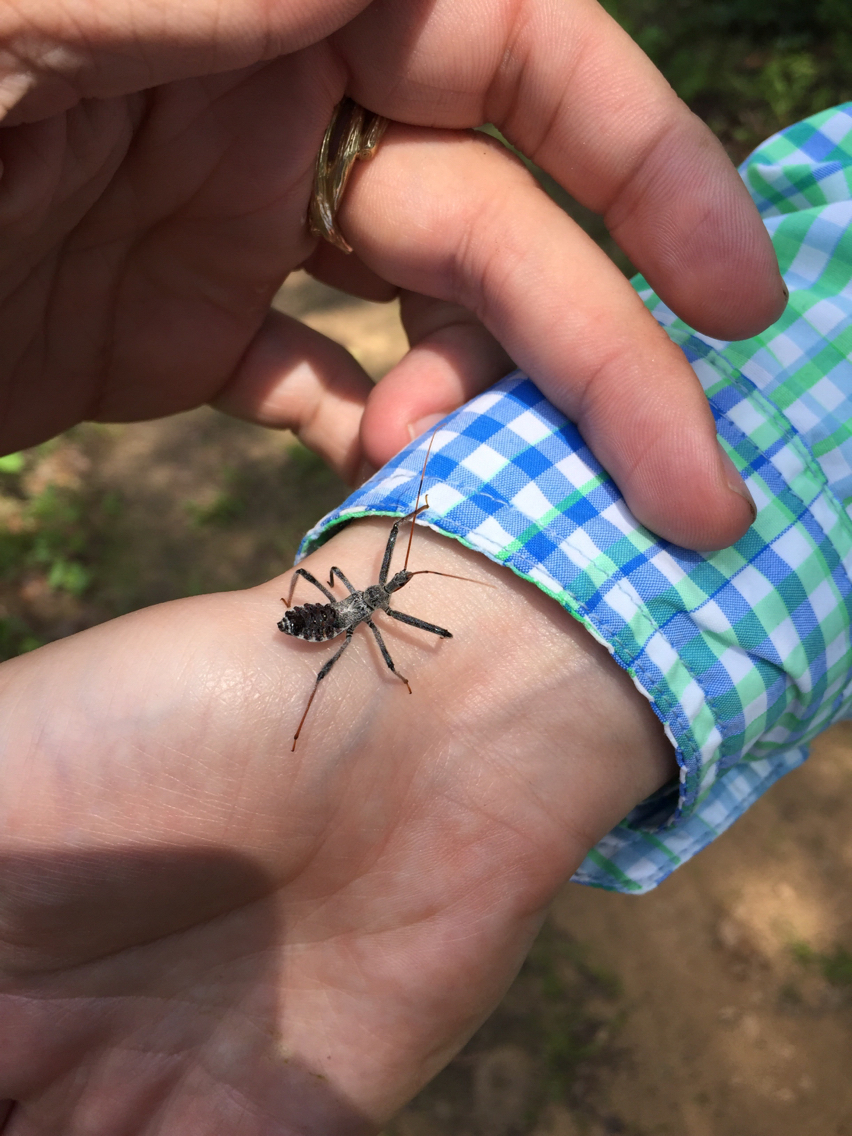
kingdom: Animalia
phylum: Arthropoda
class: Insecta
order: Hemiptera
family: Reduviidae
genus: Arilus
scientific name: Arilus cristatus
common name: North american wheel bug
